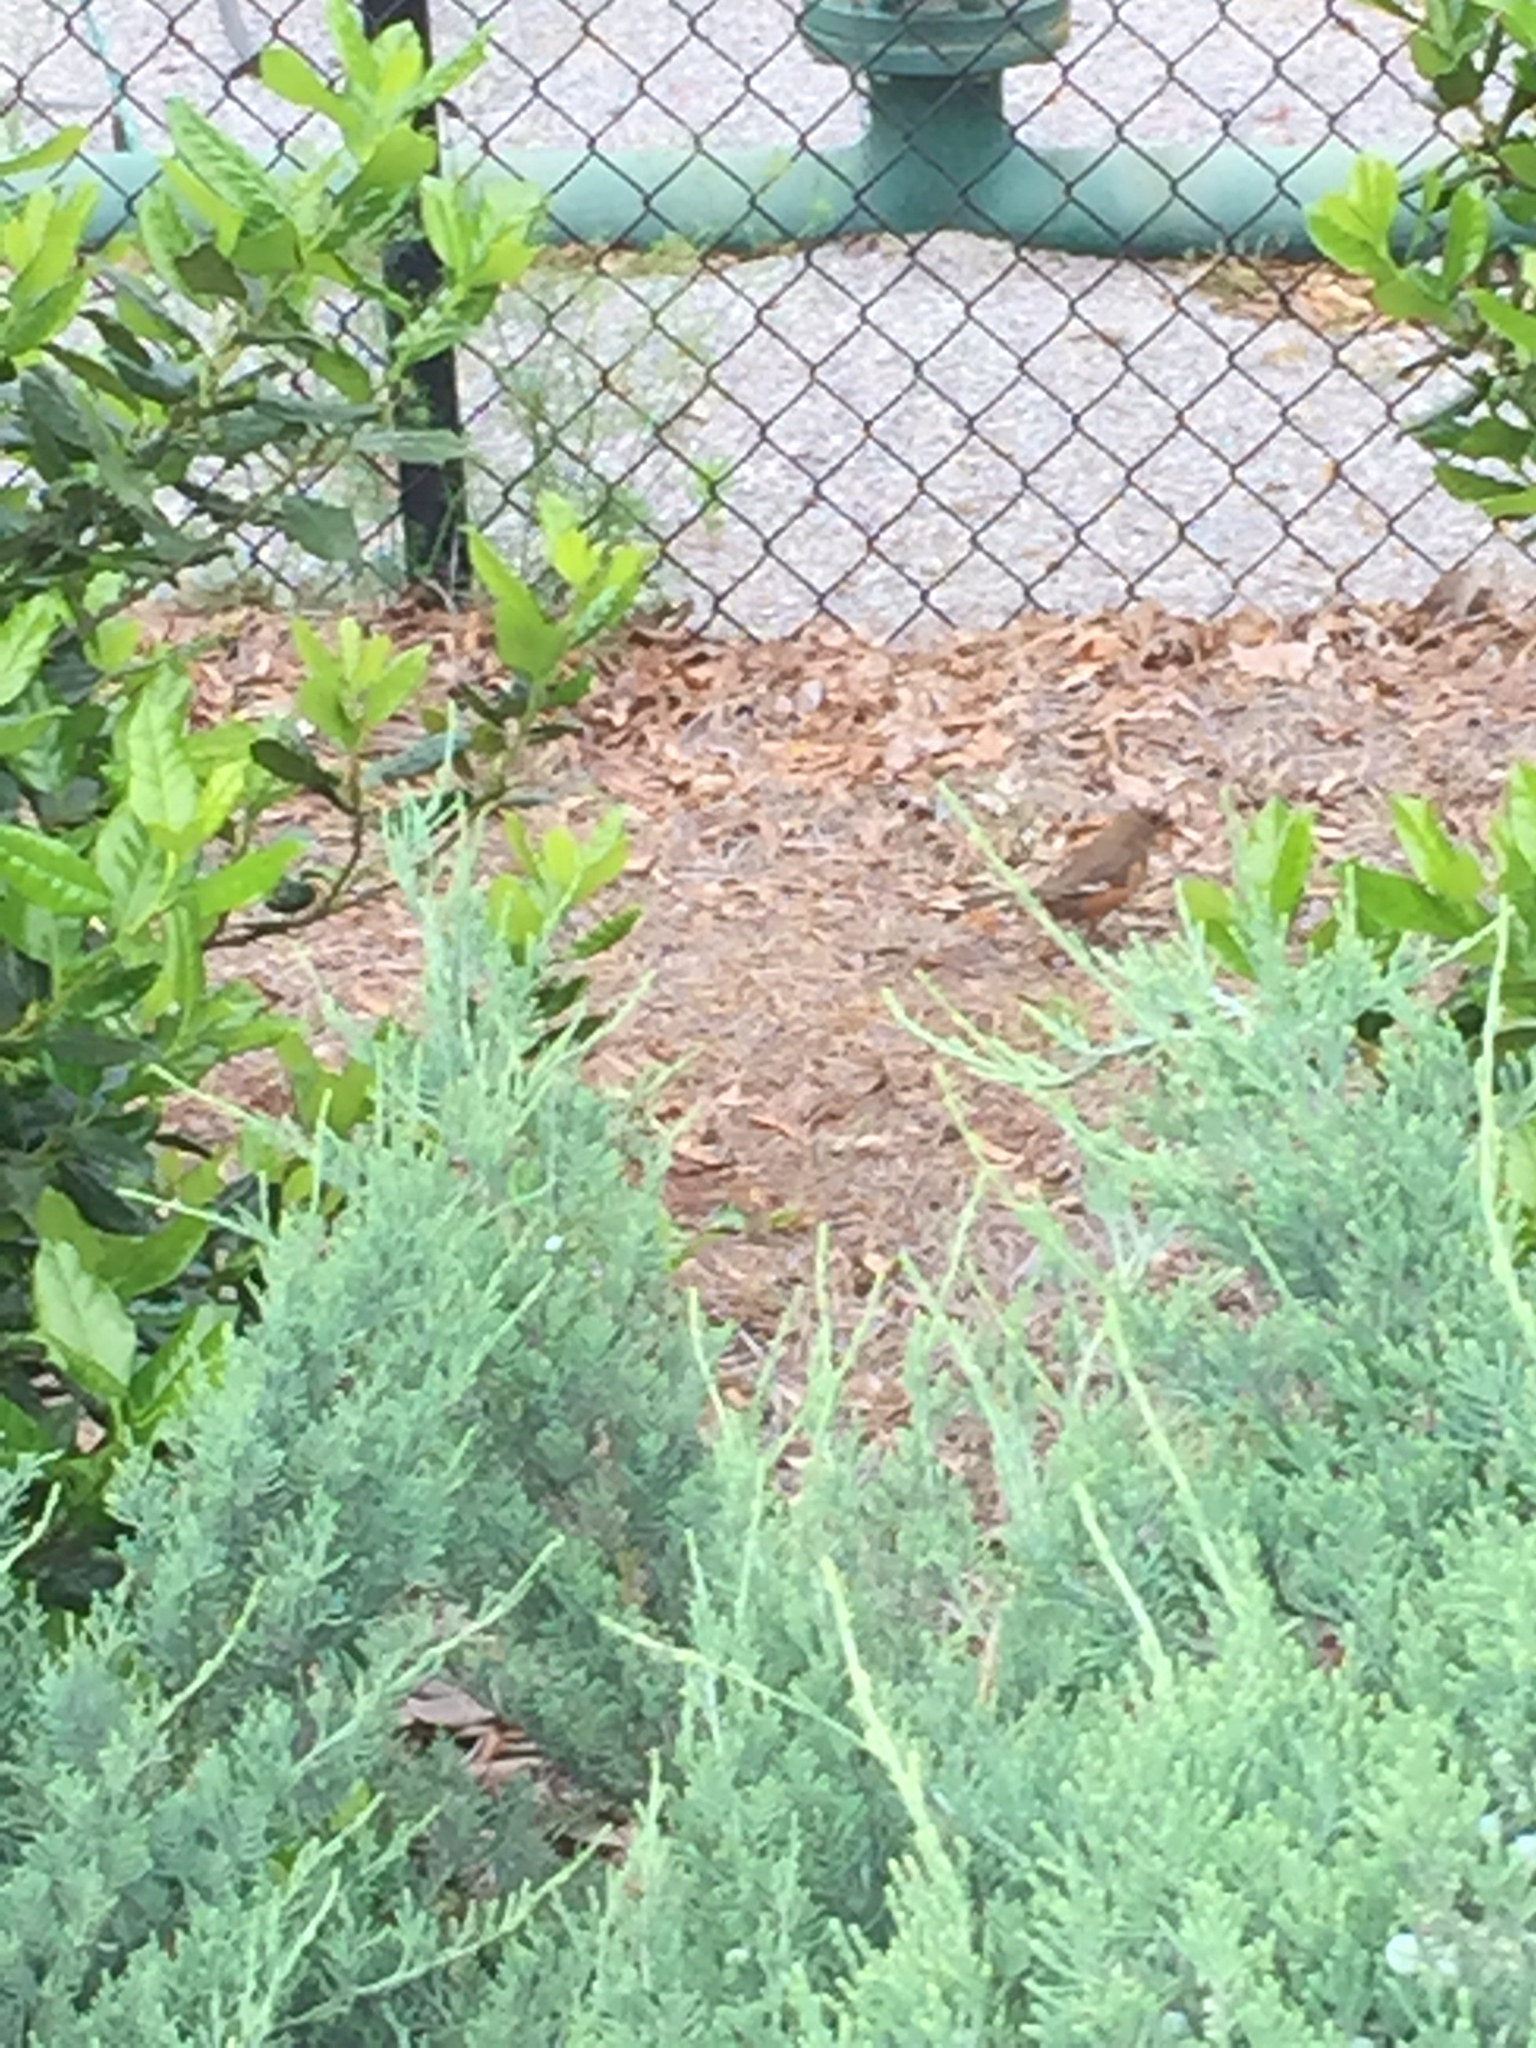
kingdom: Animalia
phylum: Chordata
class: Aves
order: Passeriformes
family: Passerellidae
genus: Pipilo
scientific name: Pipilo erythrophthalmus
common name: Eastern towhee
